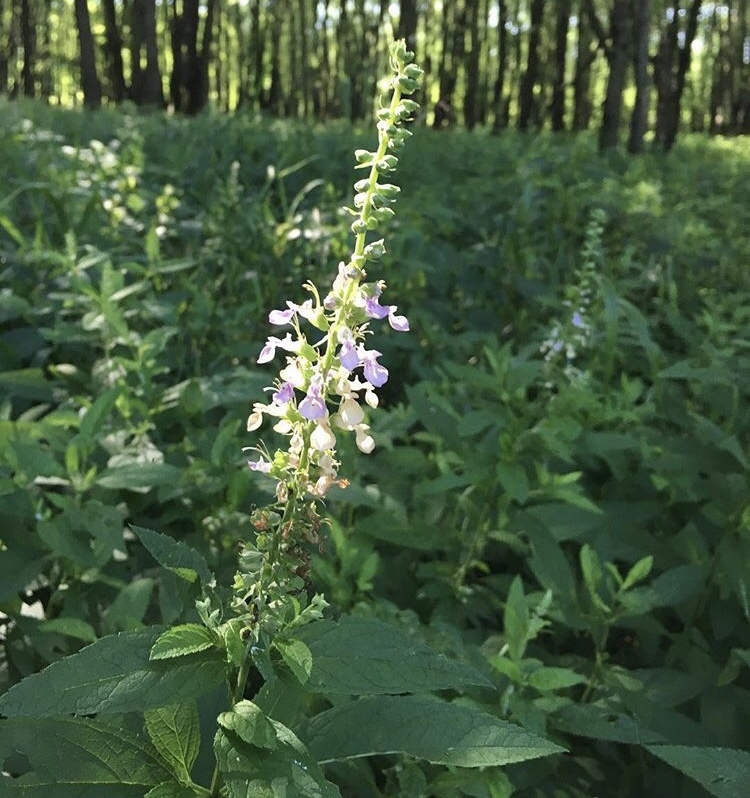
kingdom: Plantae
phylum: Tracheophyta
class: Magnoliopsida
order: Lamiales
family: Lamiaceae
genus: Teucrium
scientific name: Teucrium canadense
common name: American germander
